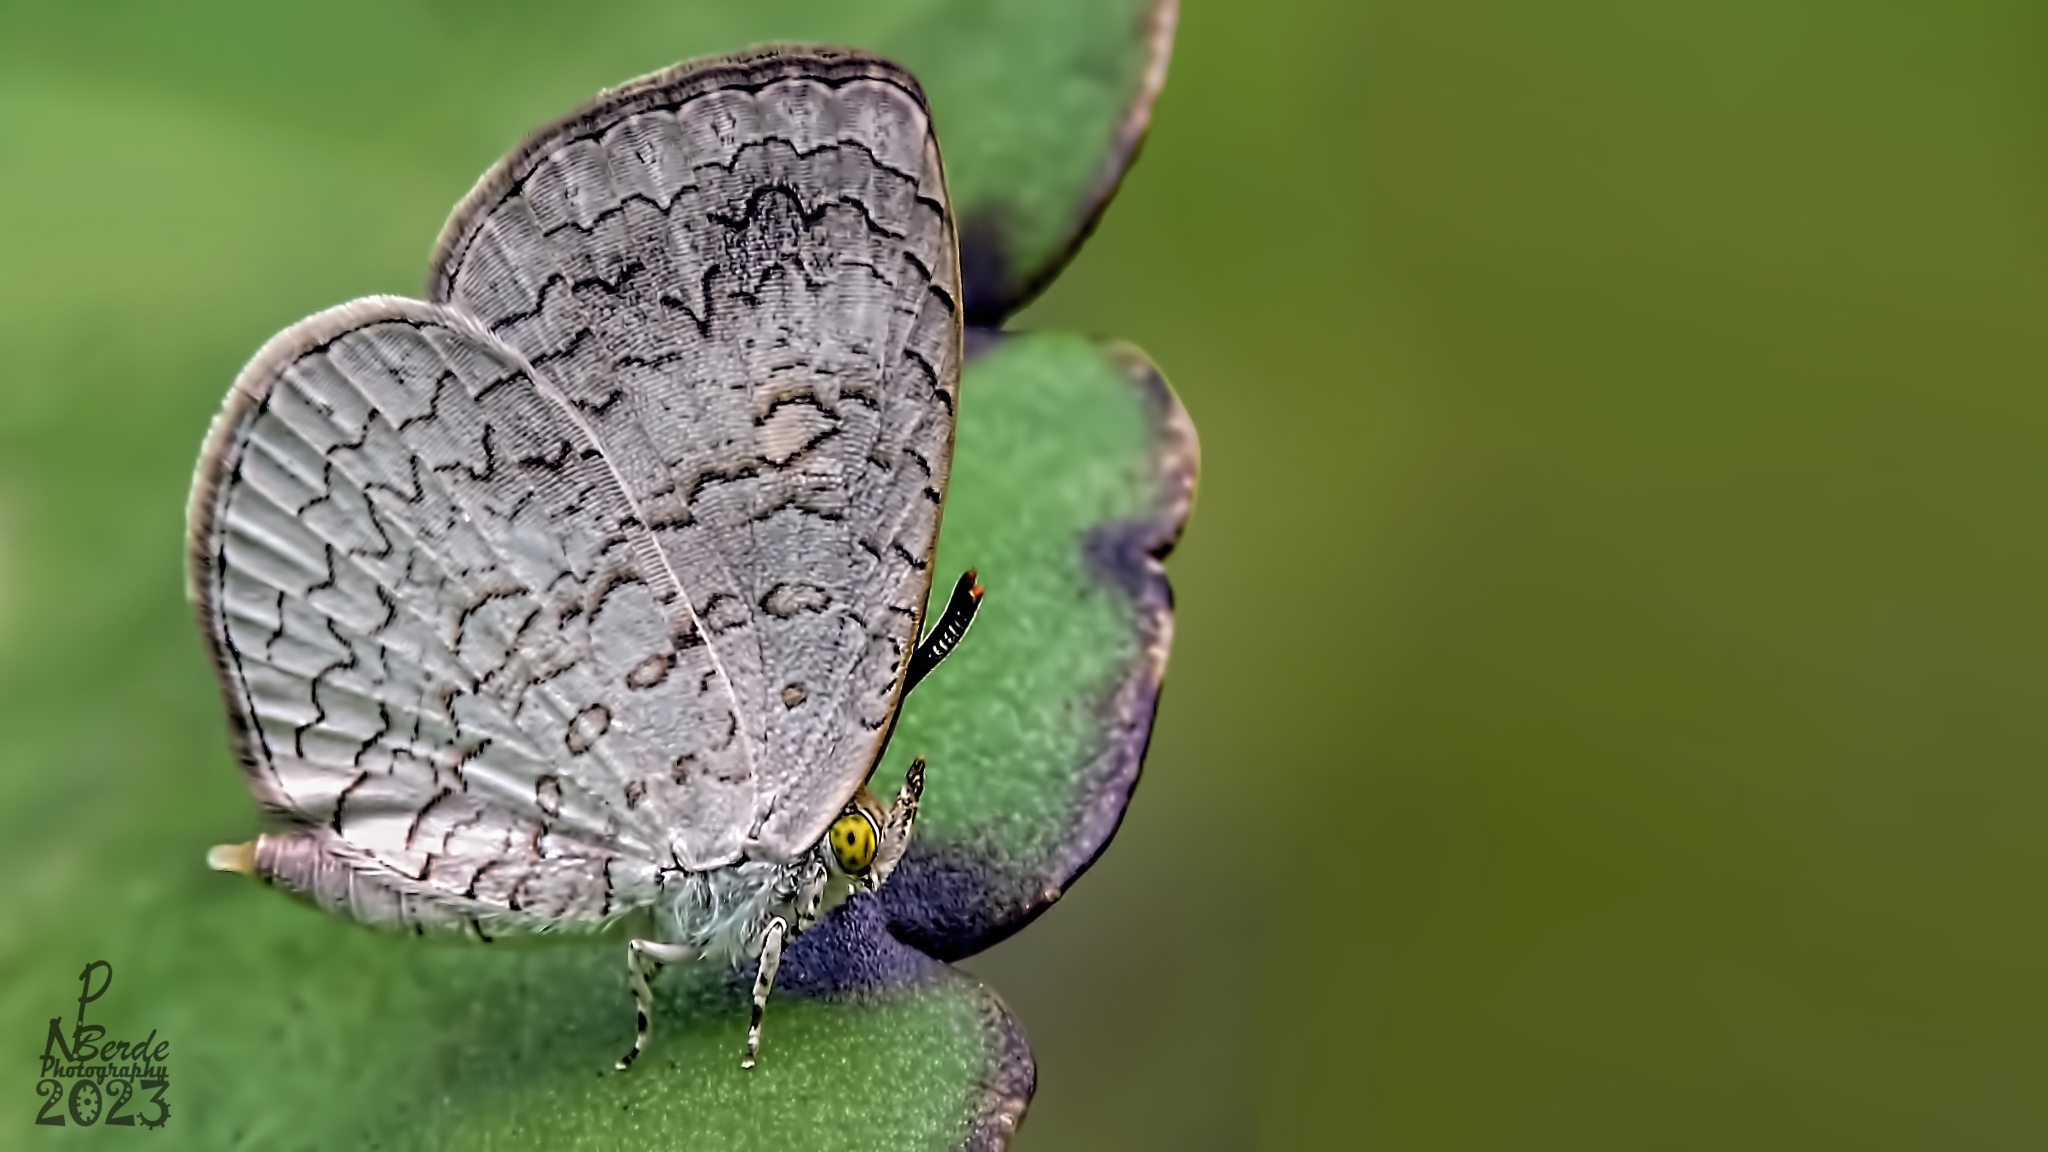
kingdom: Animalia
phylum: Arthropoda
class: Insecta
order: Lepidoptera
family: Lycaenidae
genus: Spalgis
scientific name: Spalgis epius
